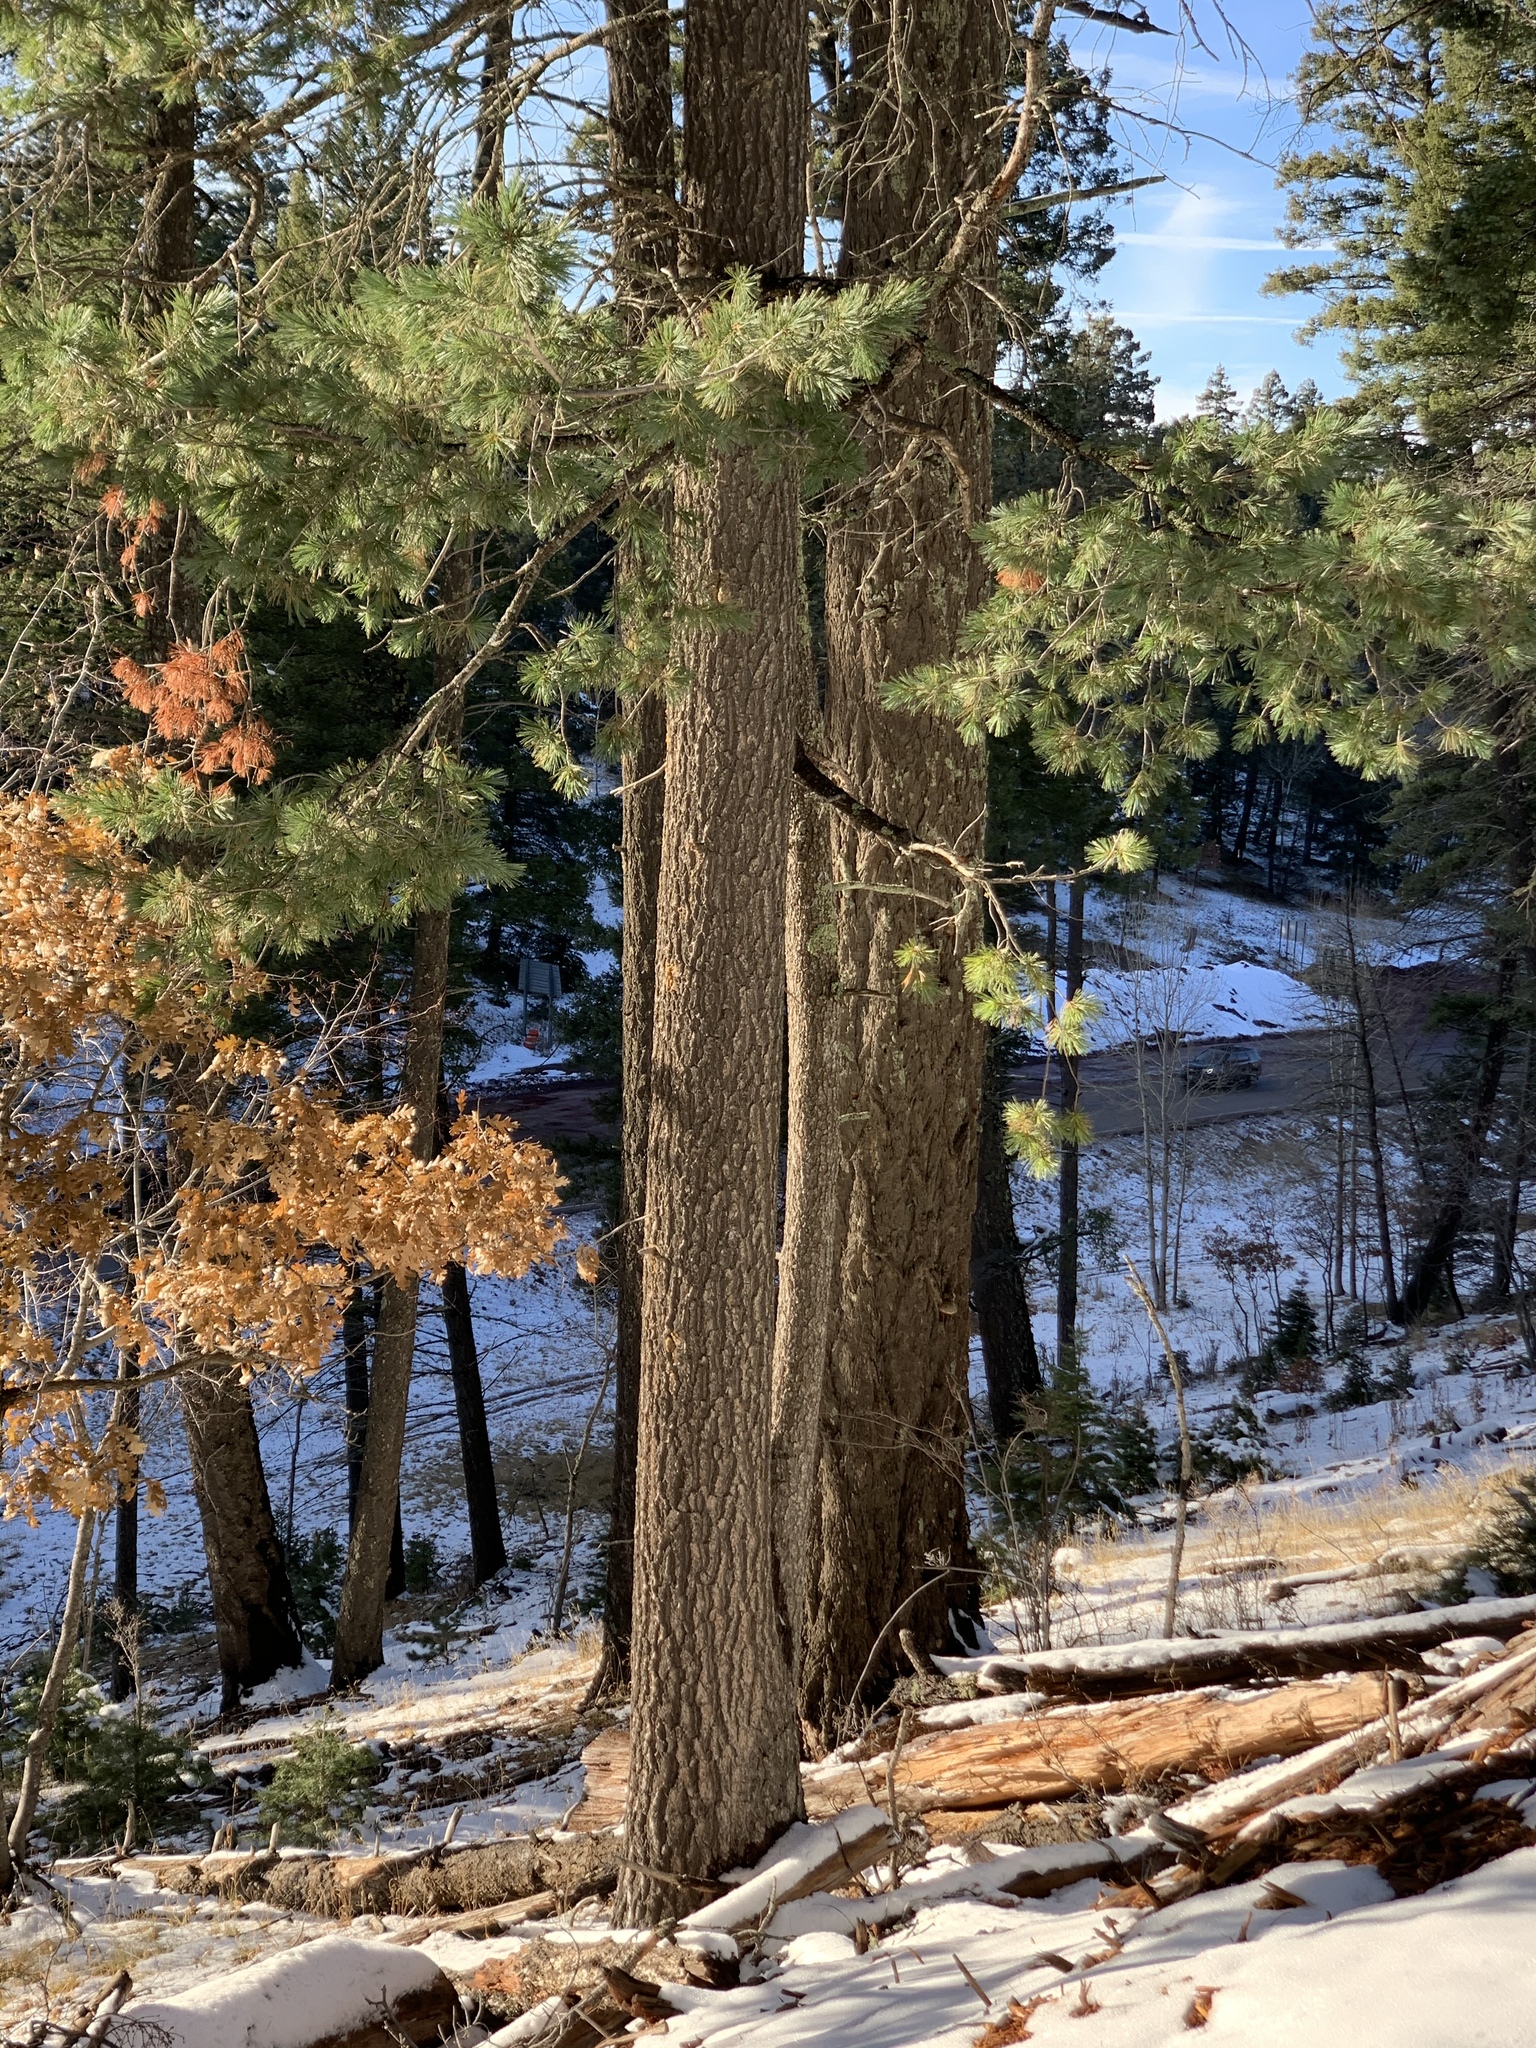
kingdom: Plantae
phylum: Tracheophyta
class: Pinopsida
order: Pinales
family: Pinaceae
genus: Pinus
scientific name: Pinus strobiformis
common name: Southwestern white pine
